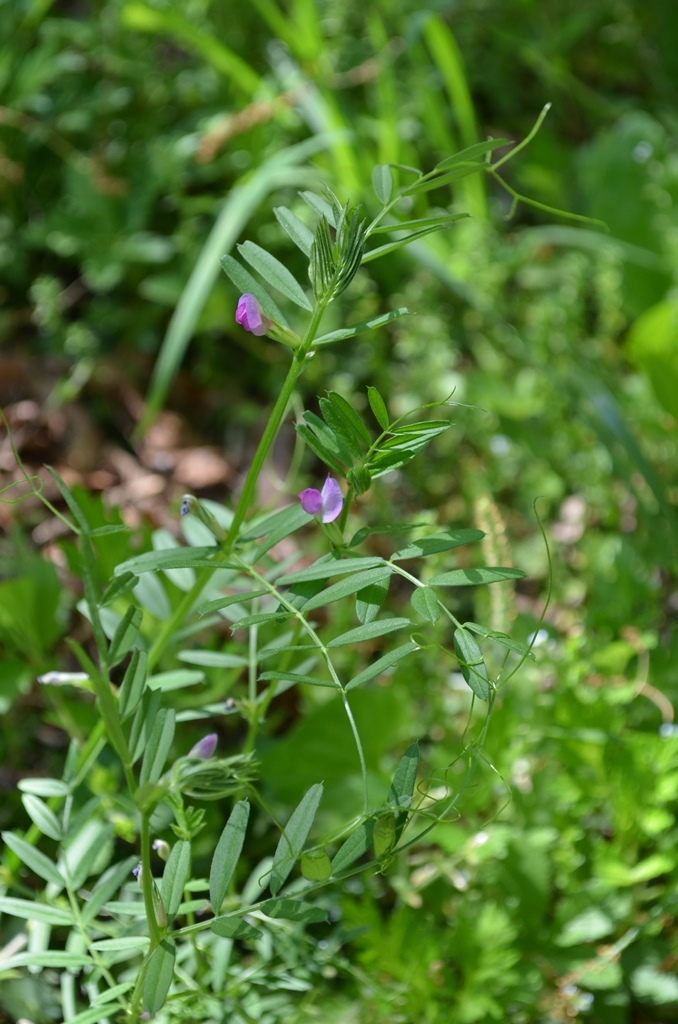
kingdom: Plantae
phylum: Tracheophyta
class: Magnoliopsida
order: Fabales
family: Fabaceae
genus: Vicia
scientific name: Vicia sativa
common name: Garden vetch
